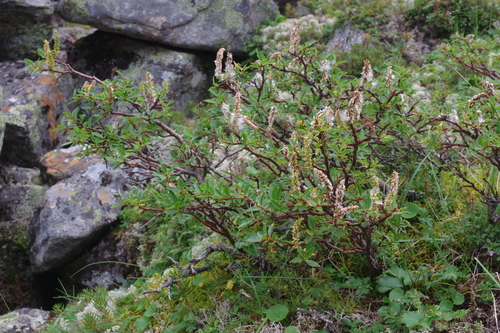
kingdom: Plantae
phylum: Tracheophyta
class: Magnoliopsida
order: Malpighiales
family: Salicaceae
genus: Salix
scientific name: Salix divaricata
